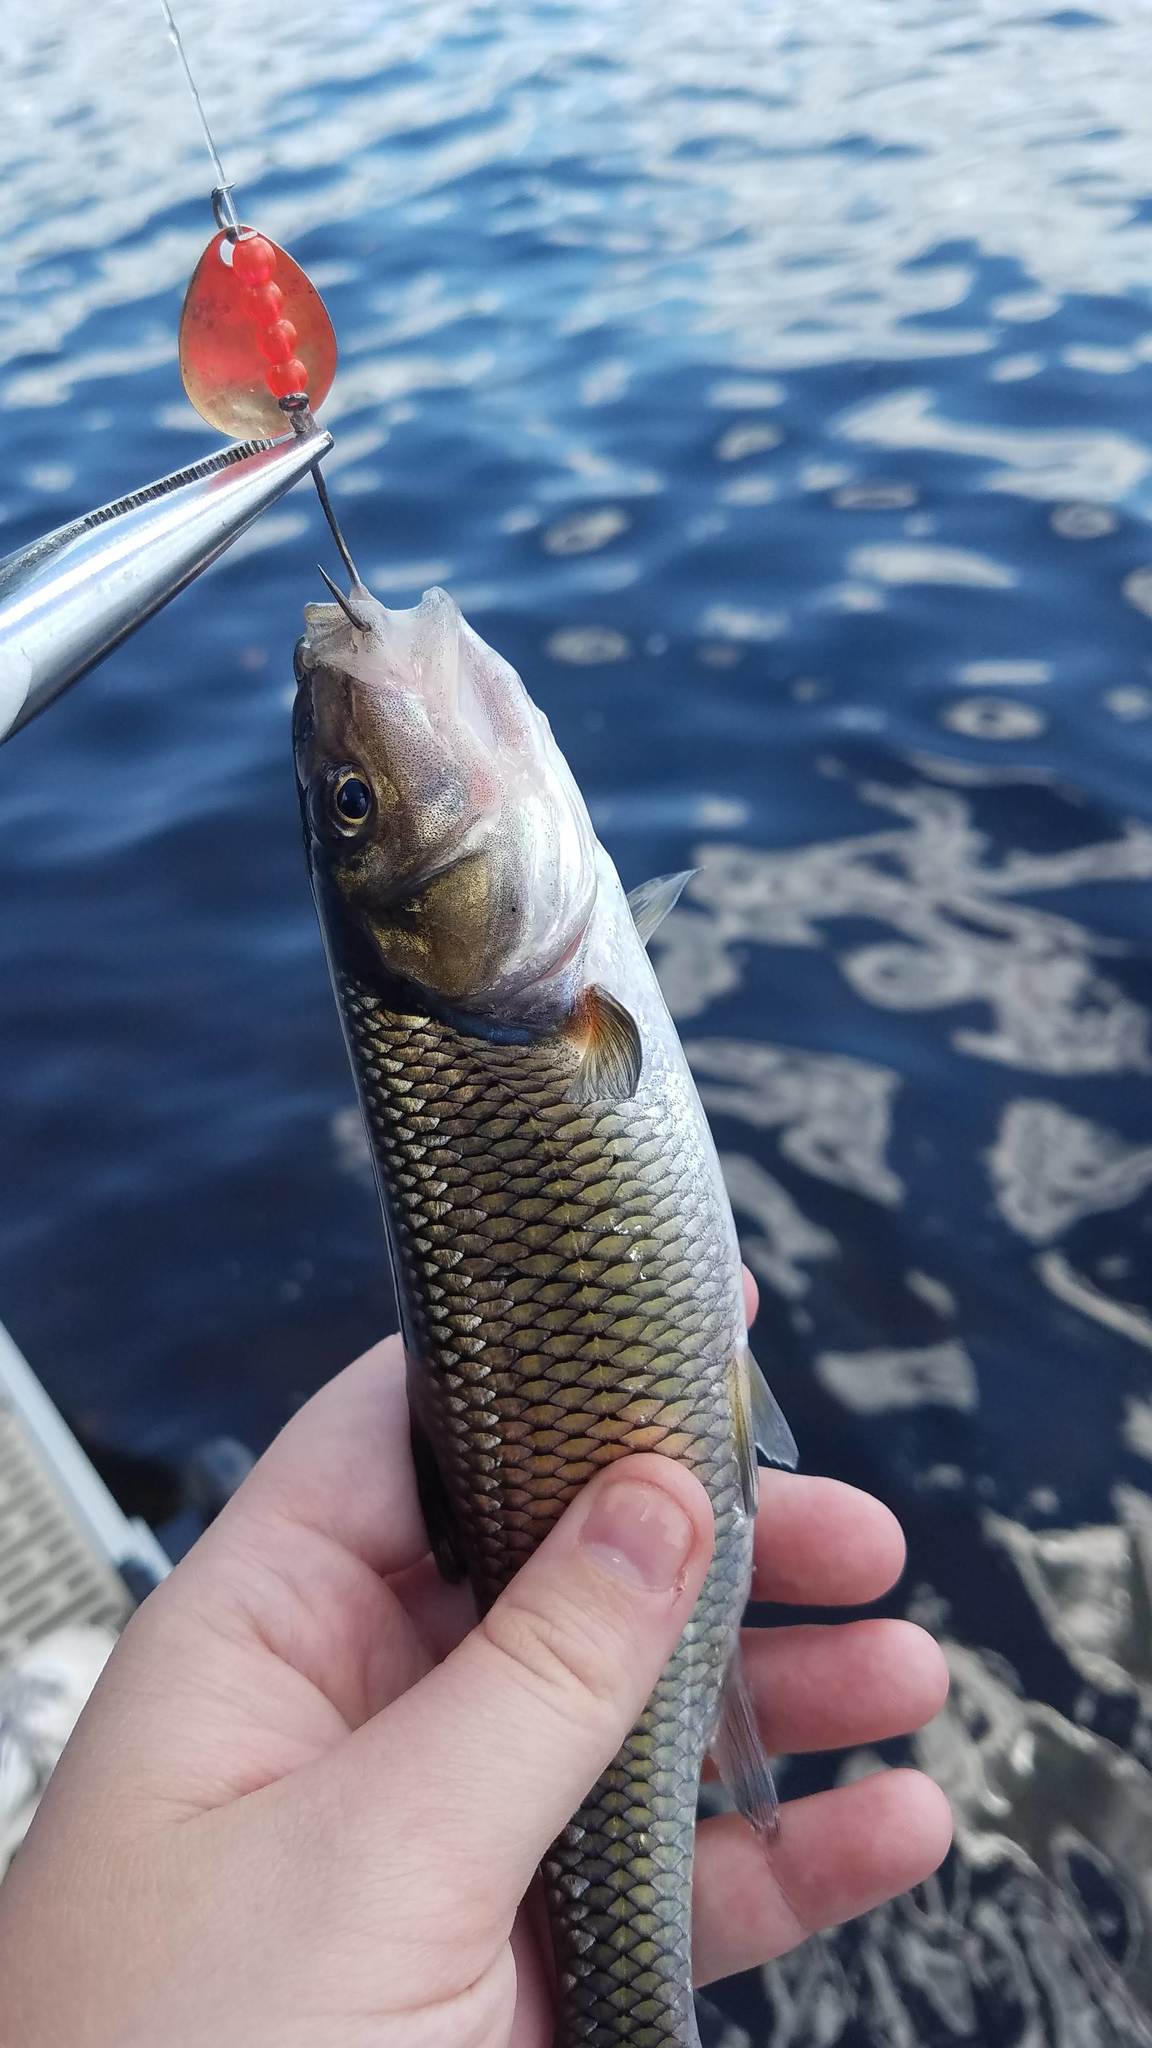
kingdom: Animalia
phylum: Chordata
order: Cypriniformes
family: Cyprinidae
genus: Semotilus
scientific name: Semotilus corporalis
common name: Fallfish
